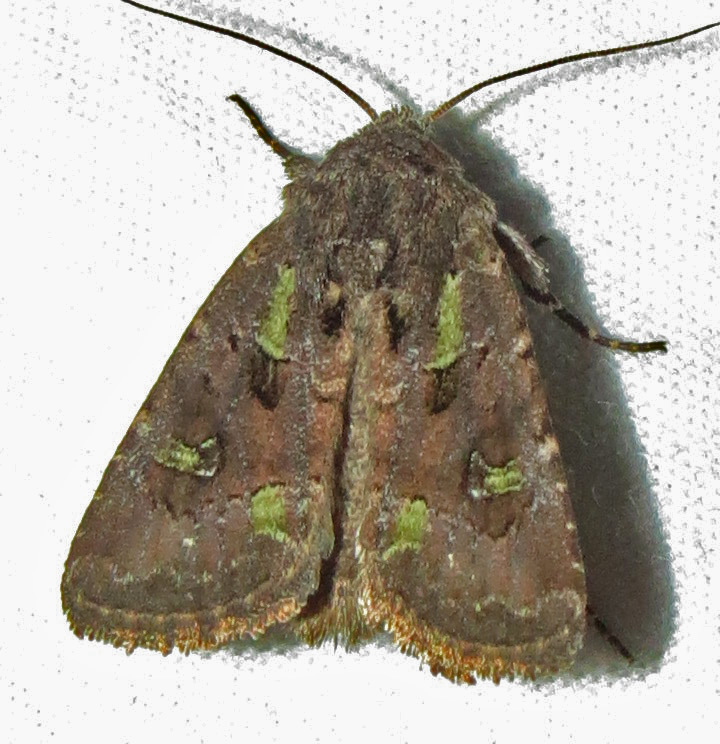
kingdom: Animalia
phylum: Arthropoda
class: Insecta
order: Lepidoptera
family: Noctuidae
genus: Lacinipolia
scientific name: Lacinipolia renigera
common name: Kidney-spotted minor
